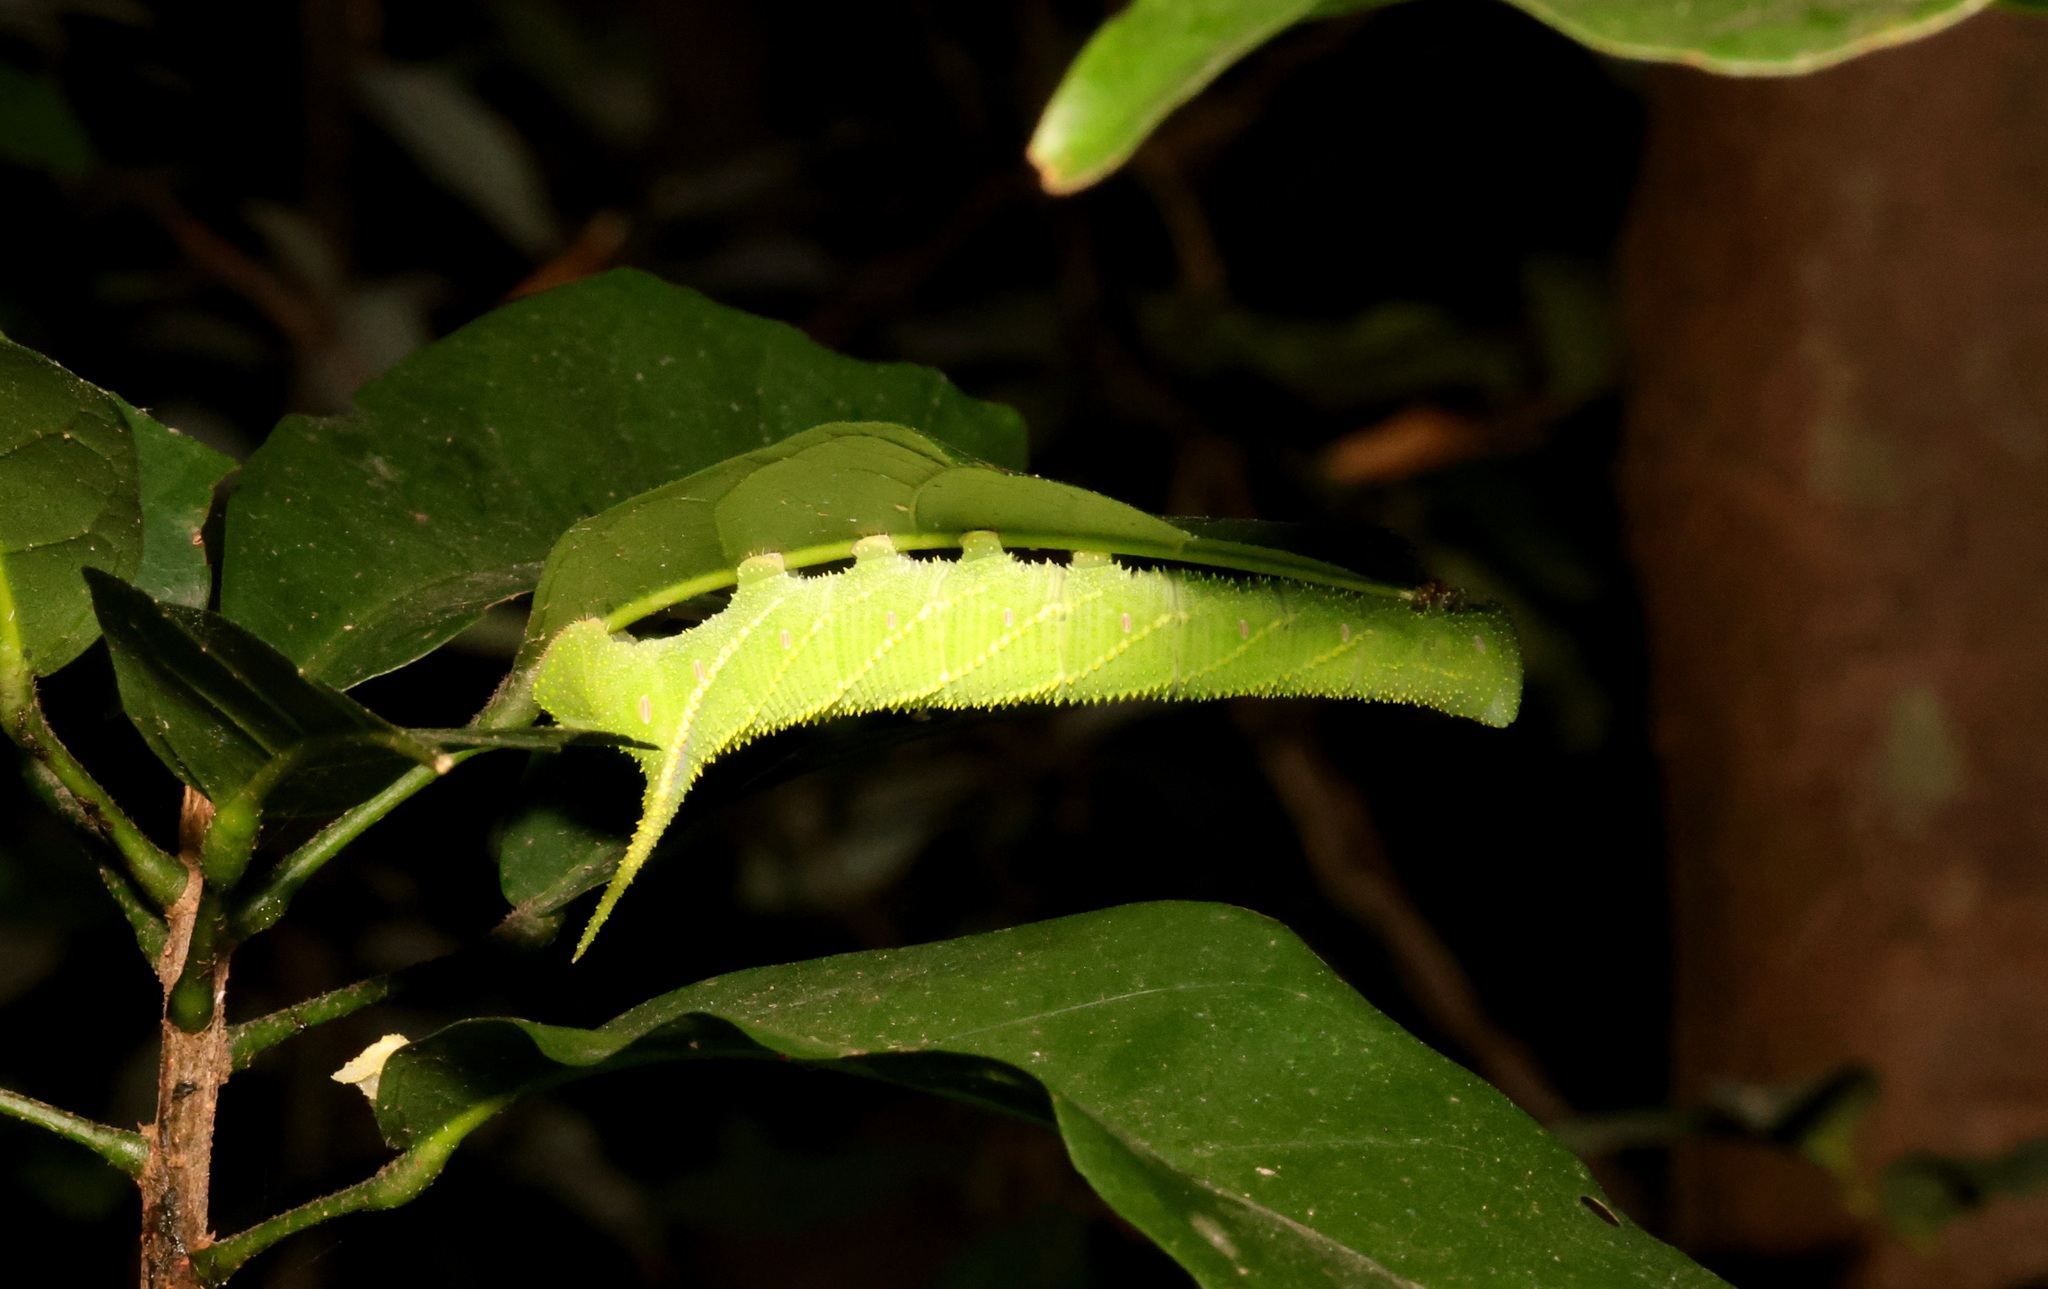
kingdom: Animalia
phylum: Arthropoda
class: Insecta
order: Lepidoptera
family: Sphingidae
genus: Clanis
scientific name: Clanis bilineata
